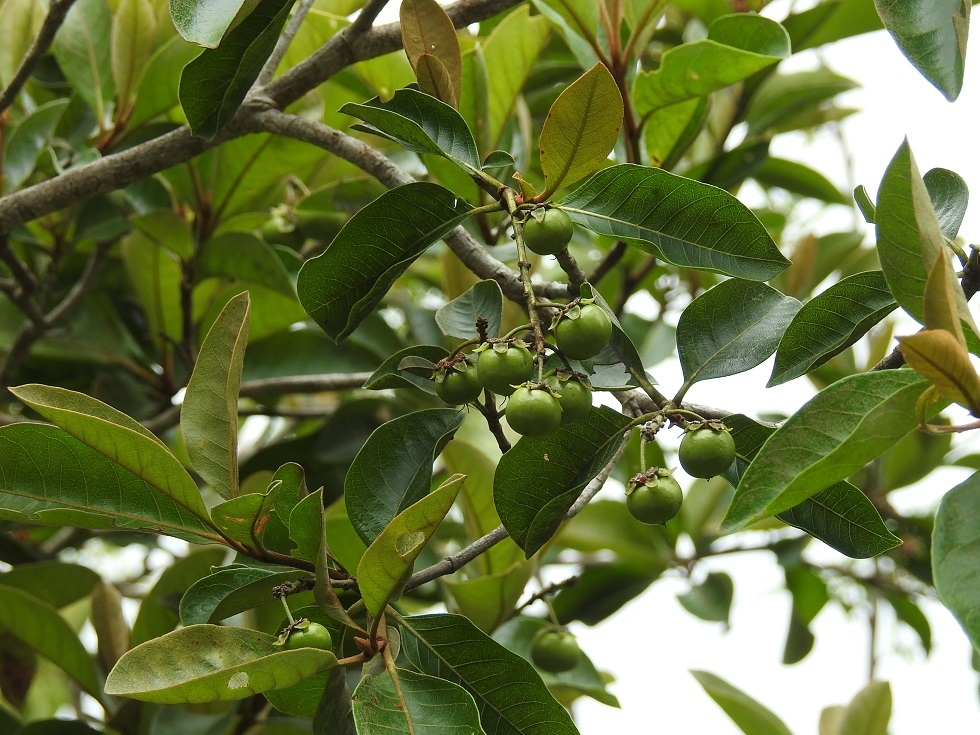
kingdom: Plantae
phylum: Tracheophyta
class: Magnoliopsida
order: Malpighiales
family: Malpighiaceae
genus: Byrsonima
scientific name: Byrsonima crassifolia
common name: Golden spoon
